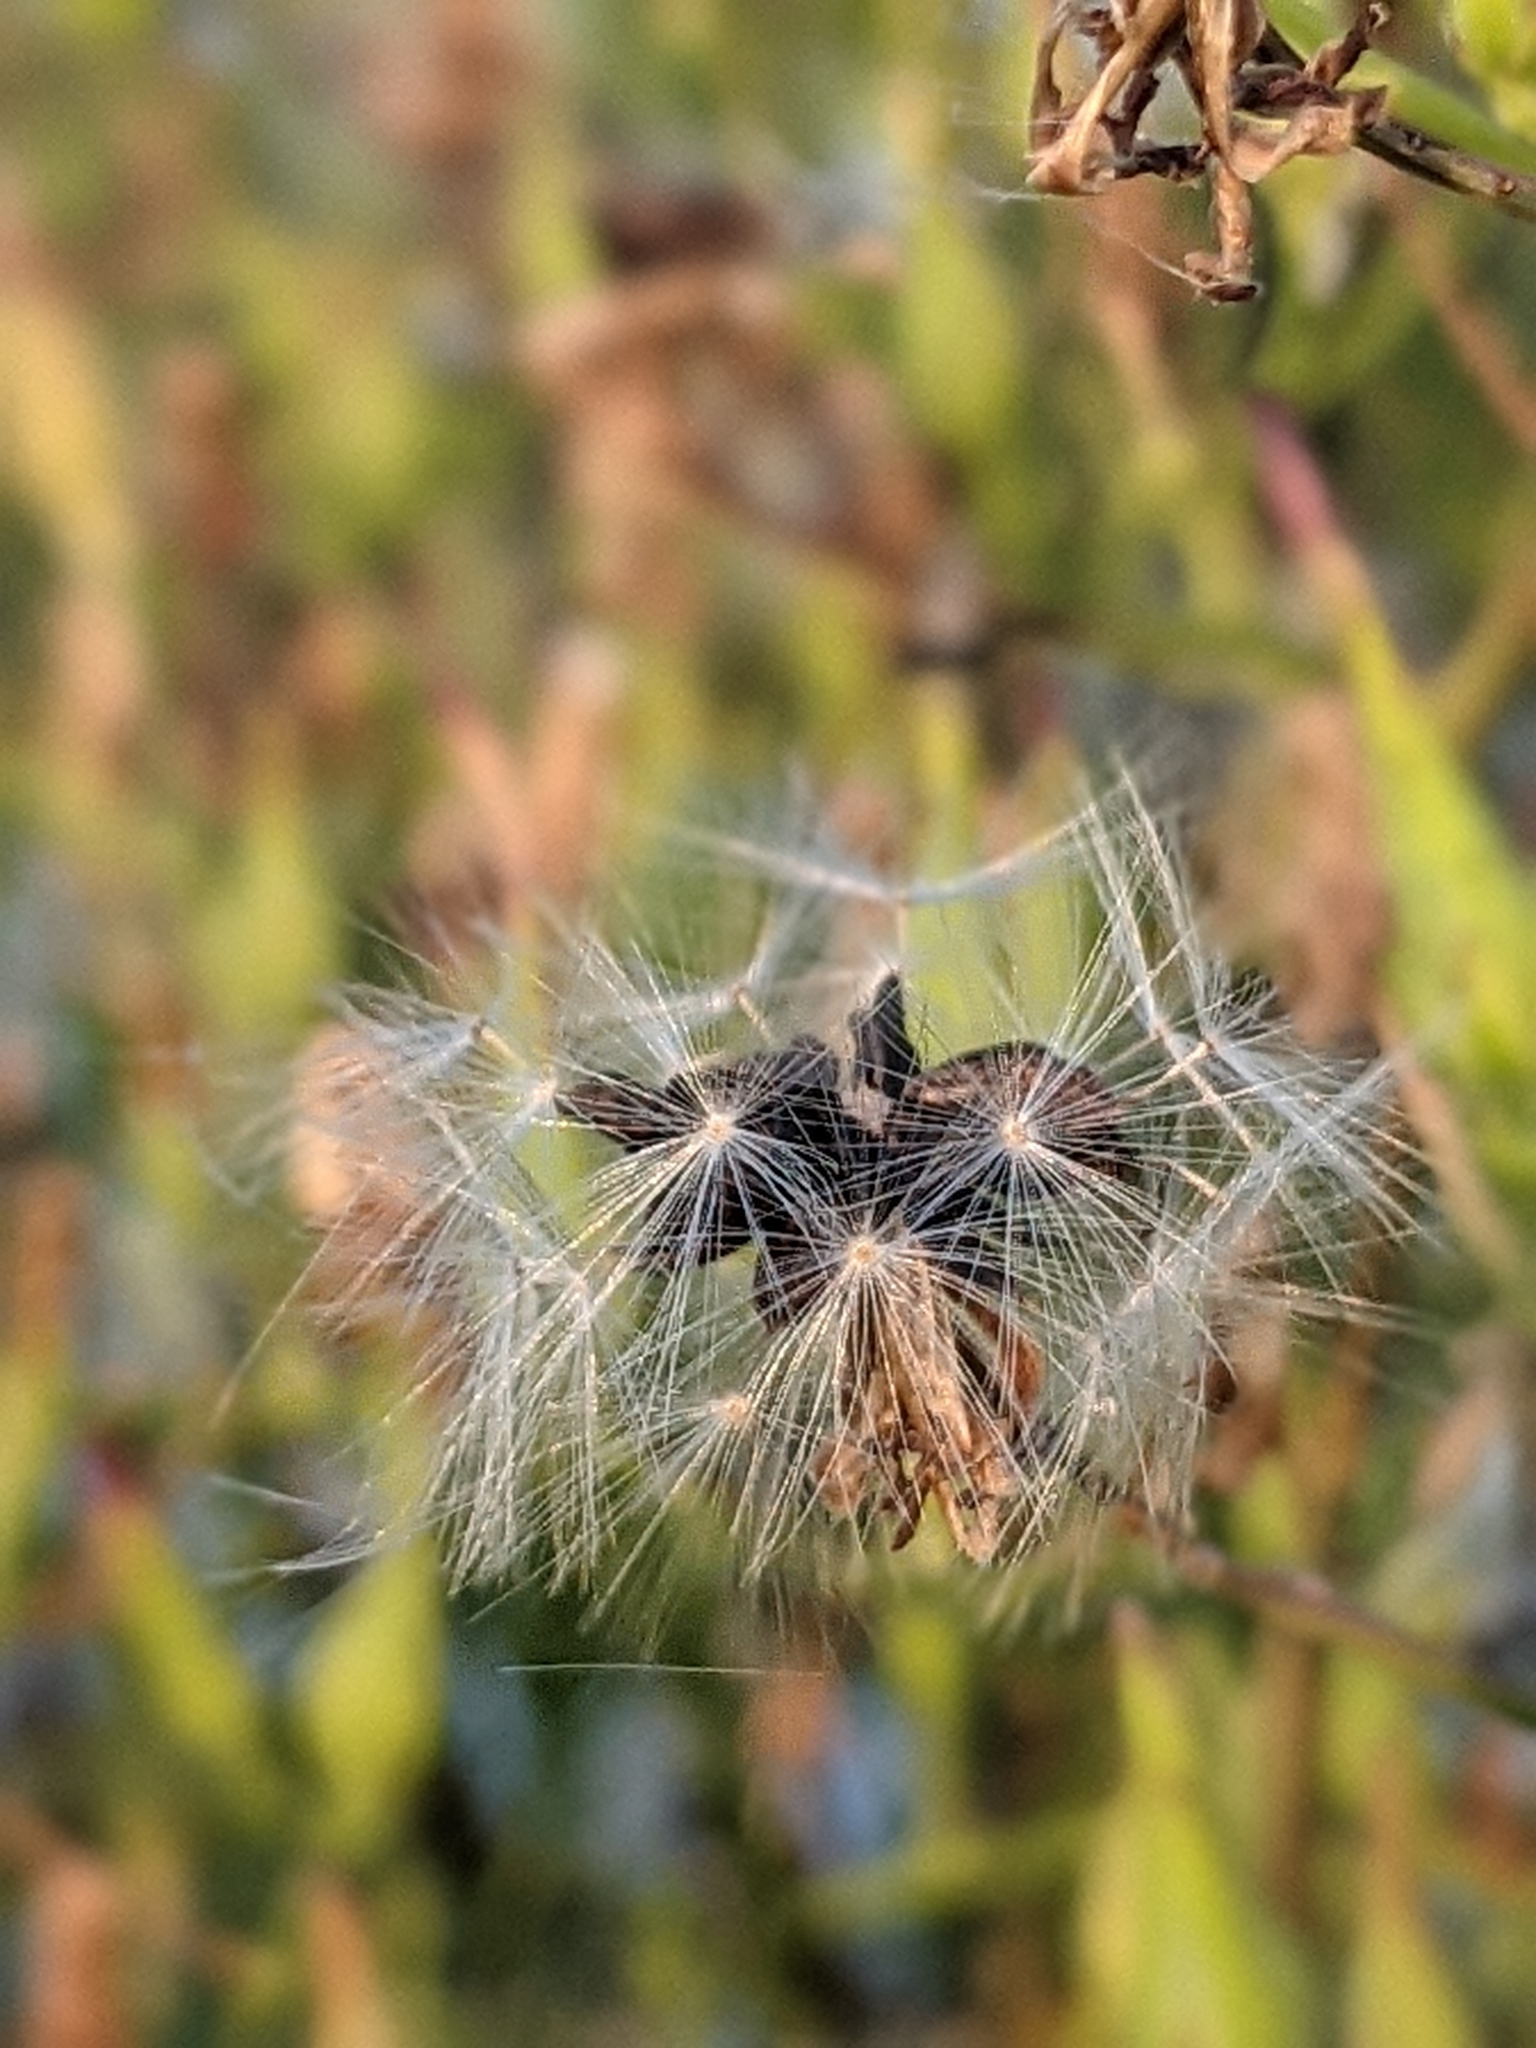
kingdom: Plantae
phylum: Tracheophyta
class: Magnoliopsida
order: Asterales
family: Asteraceae
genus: Lactuca
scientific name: Lactuca canadensis
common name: Canada lettuce
